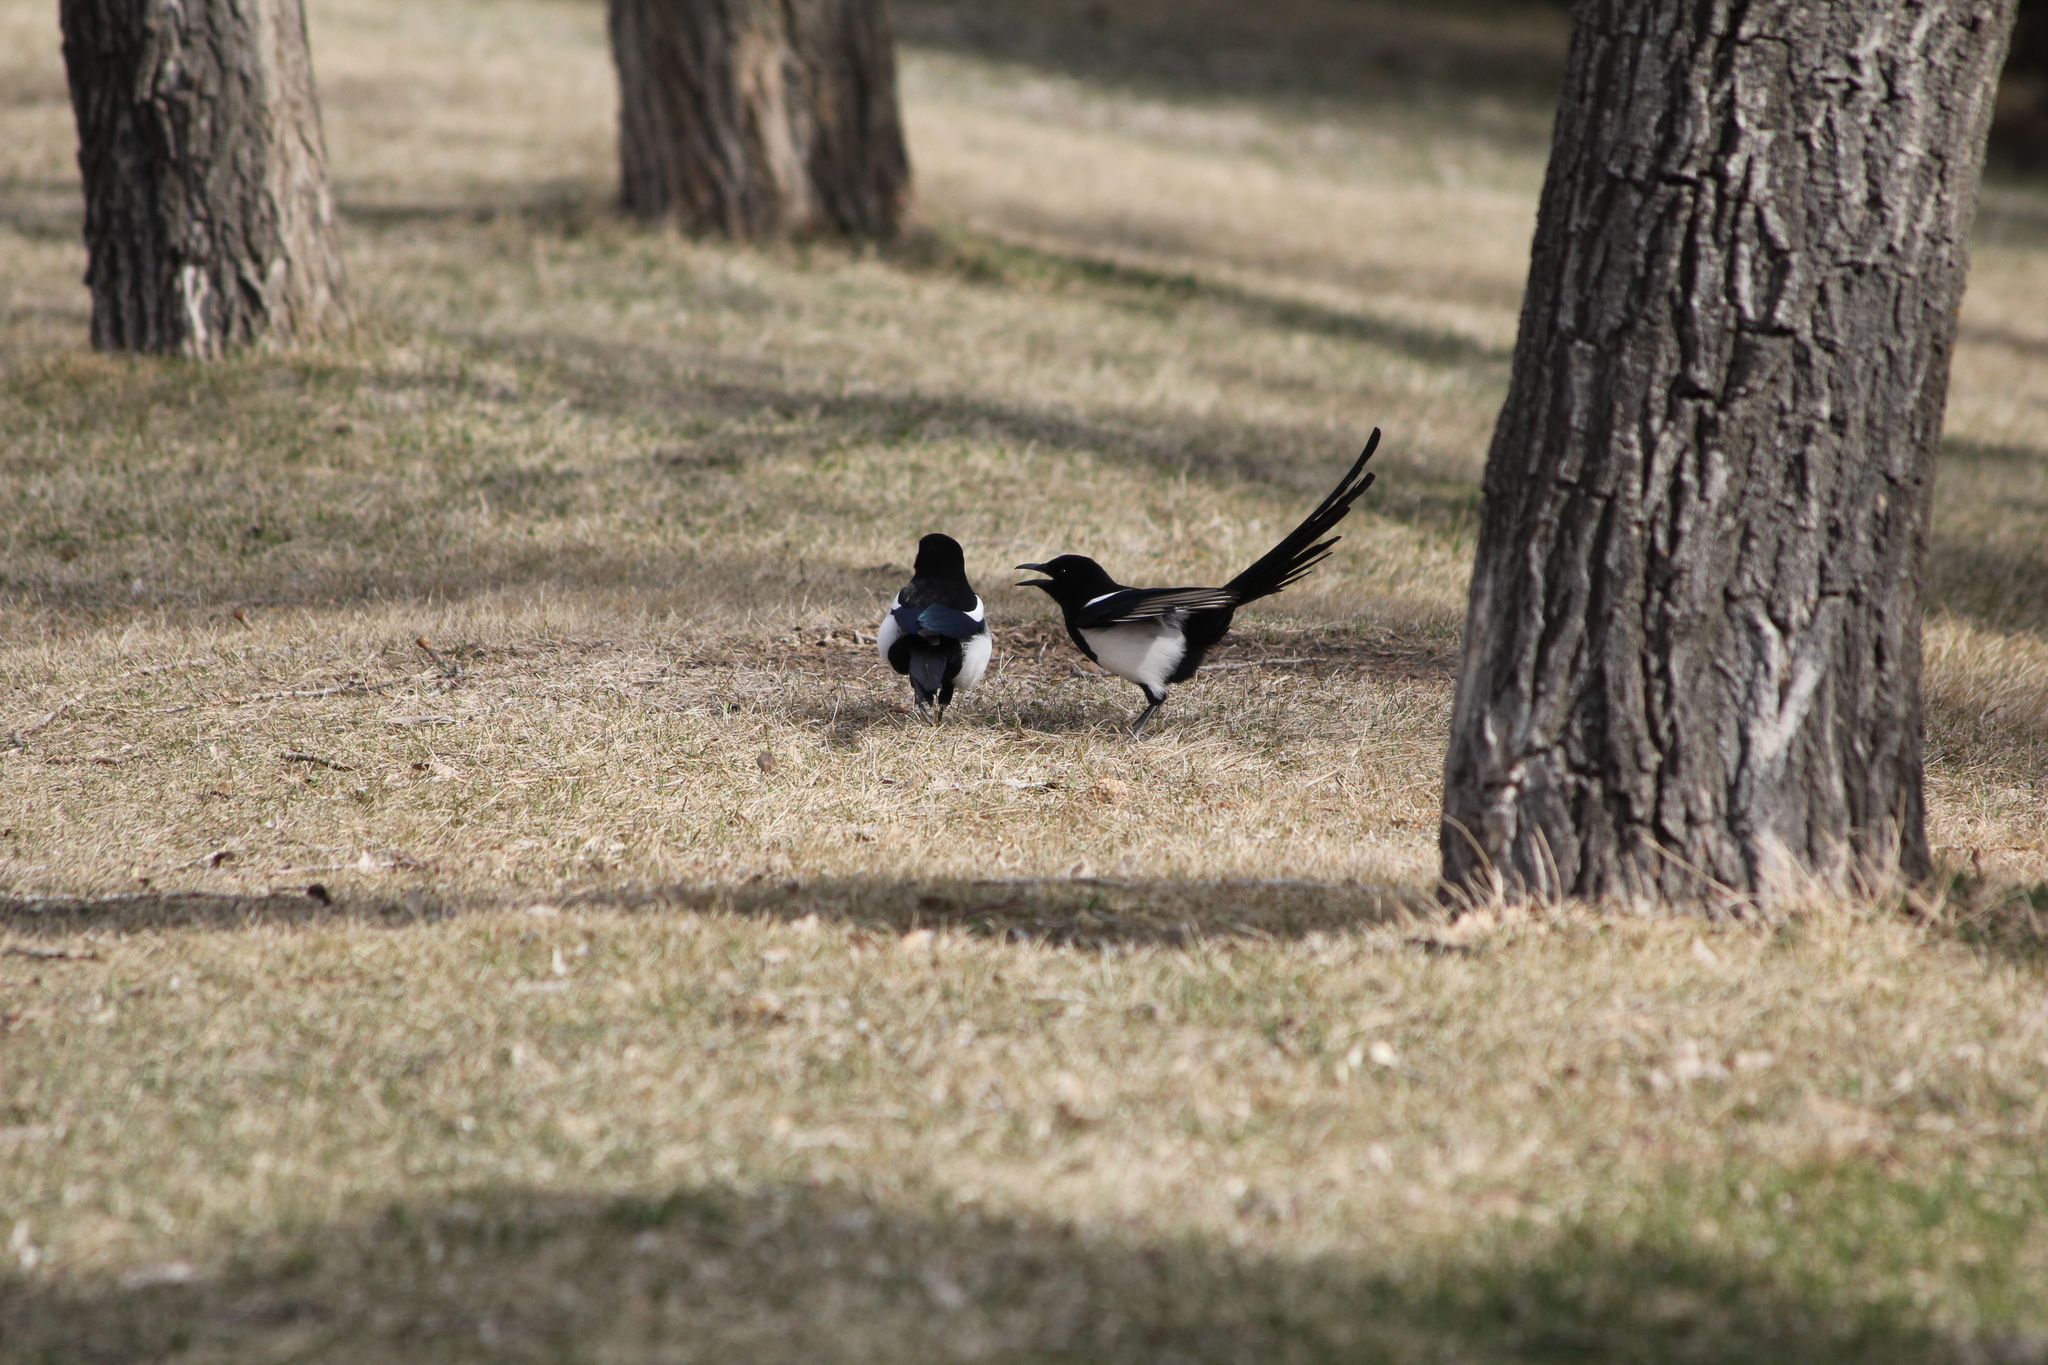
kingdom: Animalia
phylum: Chordata
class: Aves
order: Passeriformes
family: Corvidae
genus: Pica
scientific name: Pica hudsonia
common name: Black-billed magpie
